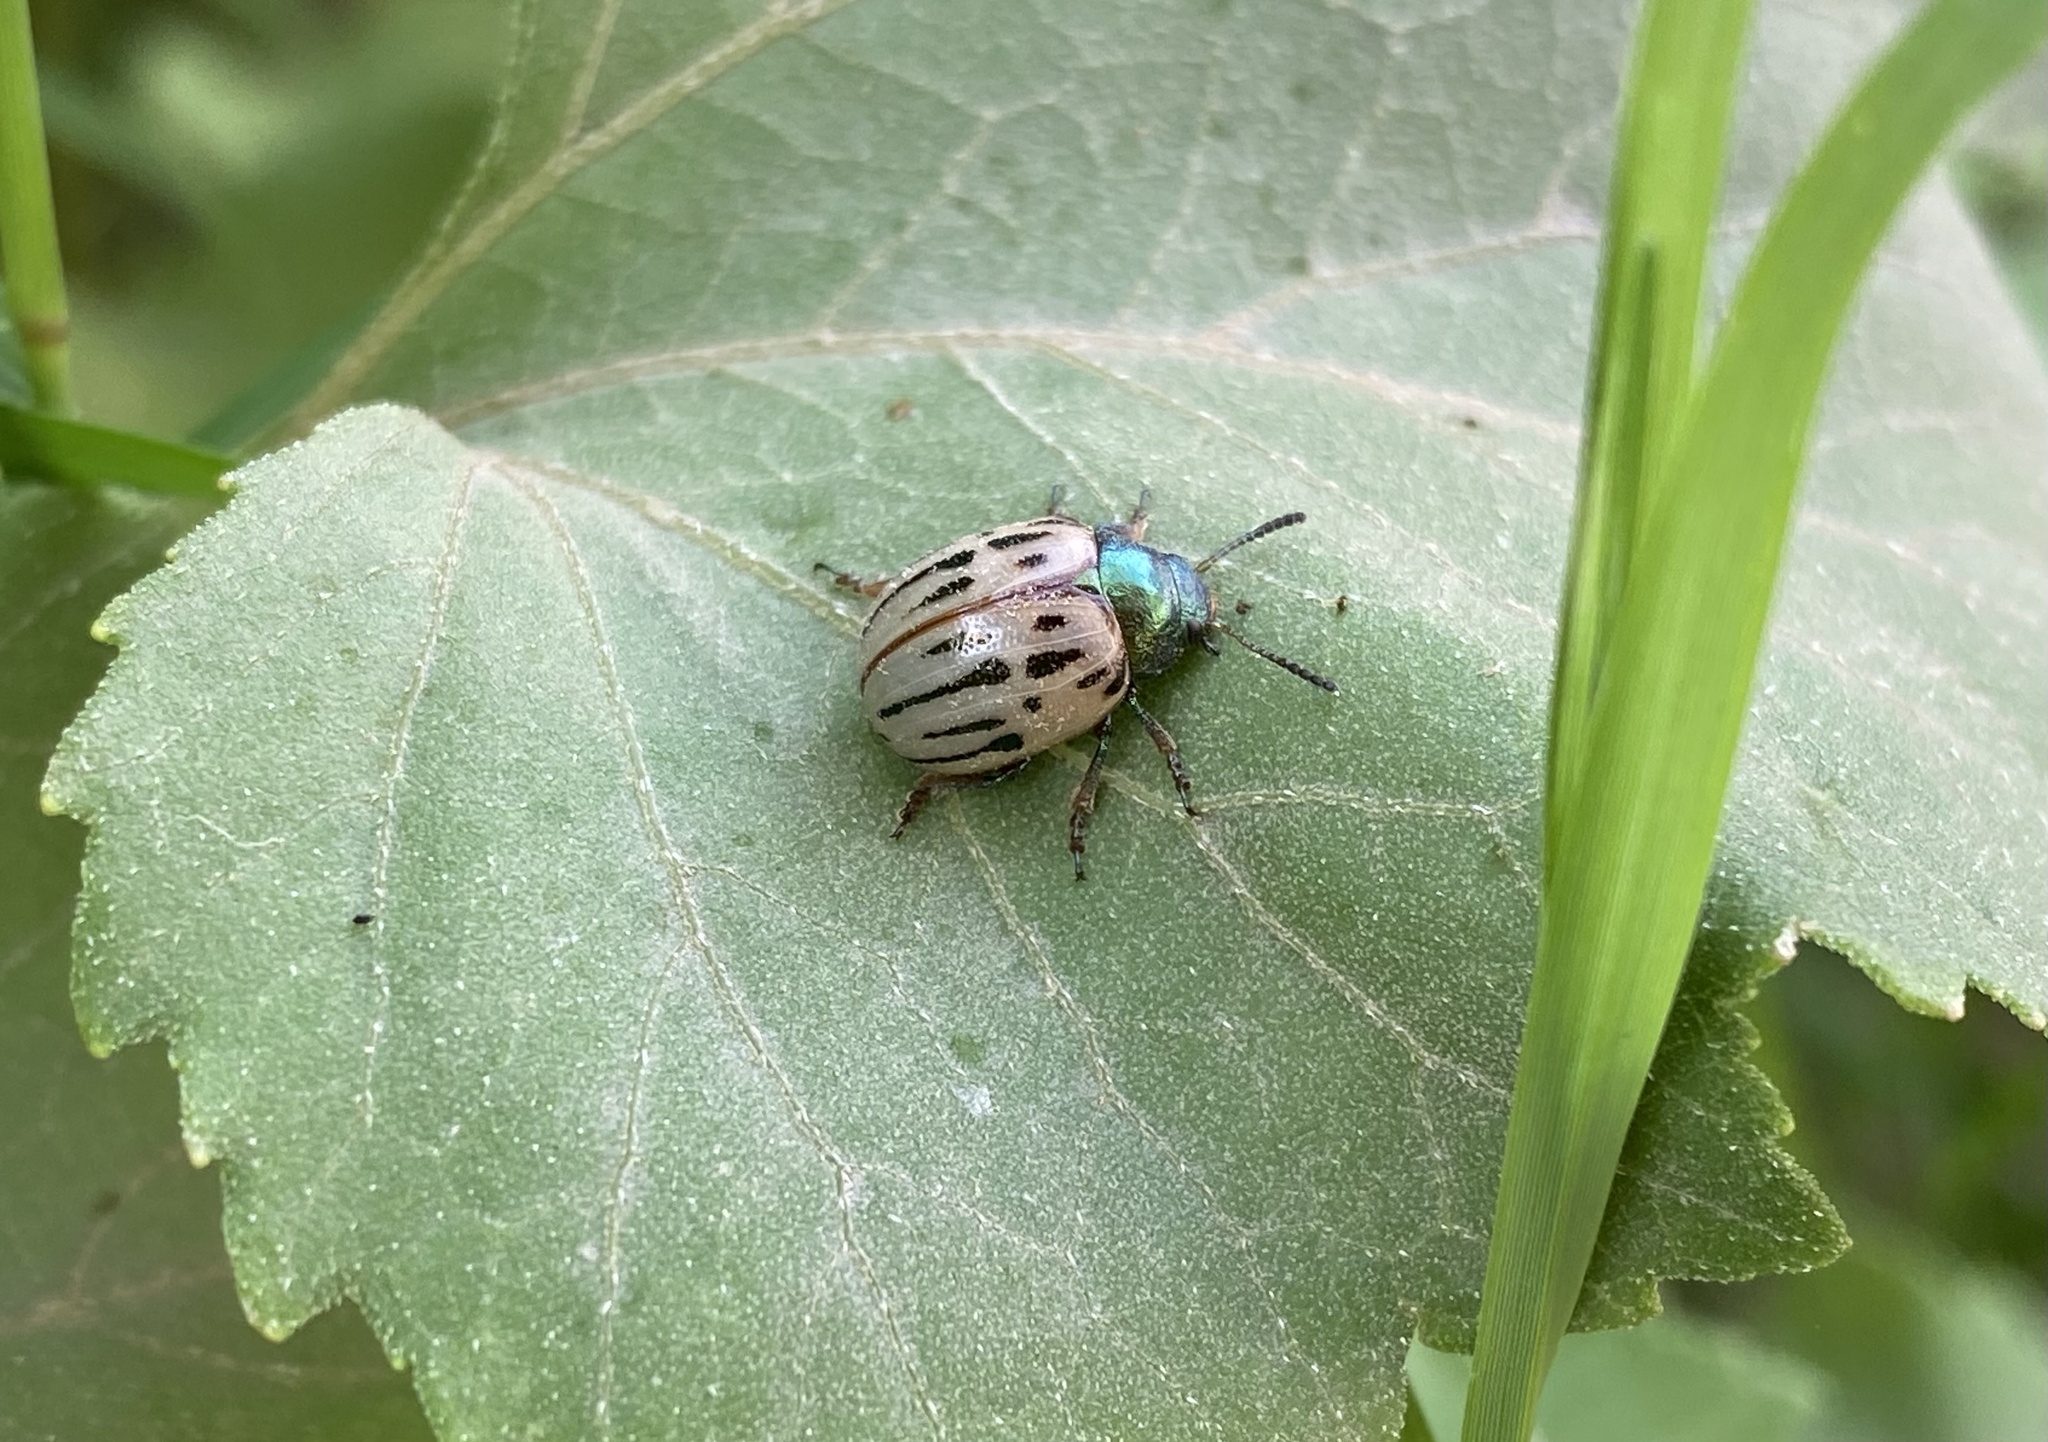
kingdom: Animalia
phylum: Arthropoda
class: Insecta
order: Coleoptera
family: Chrysomelidae
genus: Leptinotarsa
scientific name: Leptinotarsa lineolata
